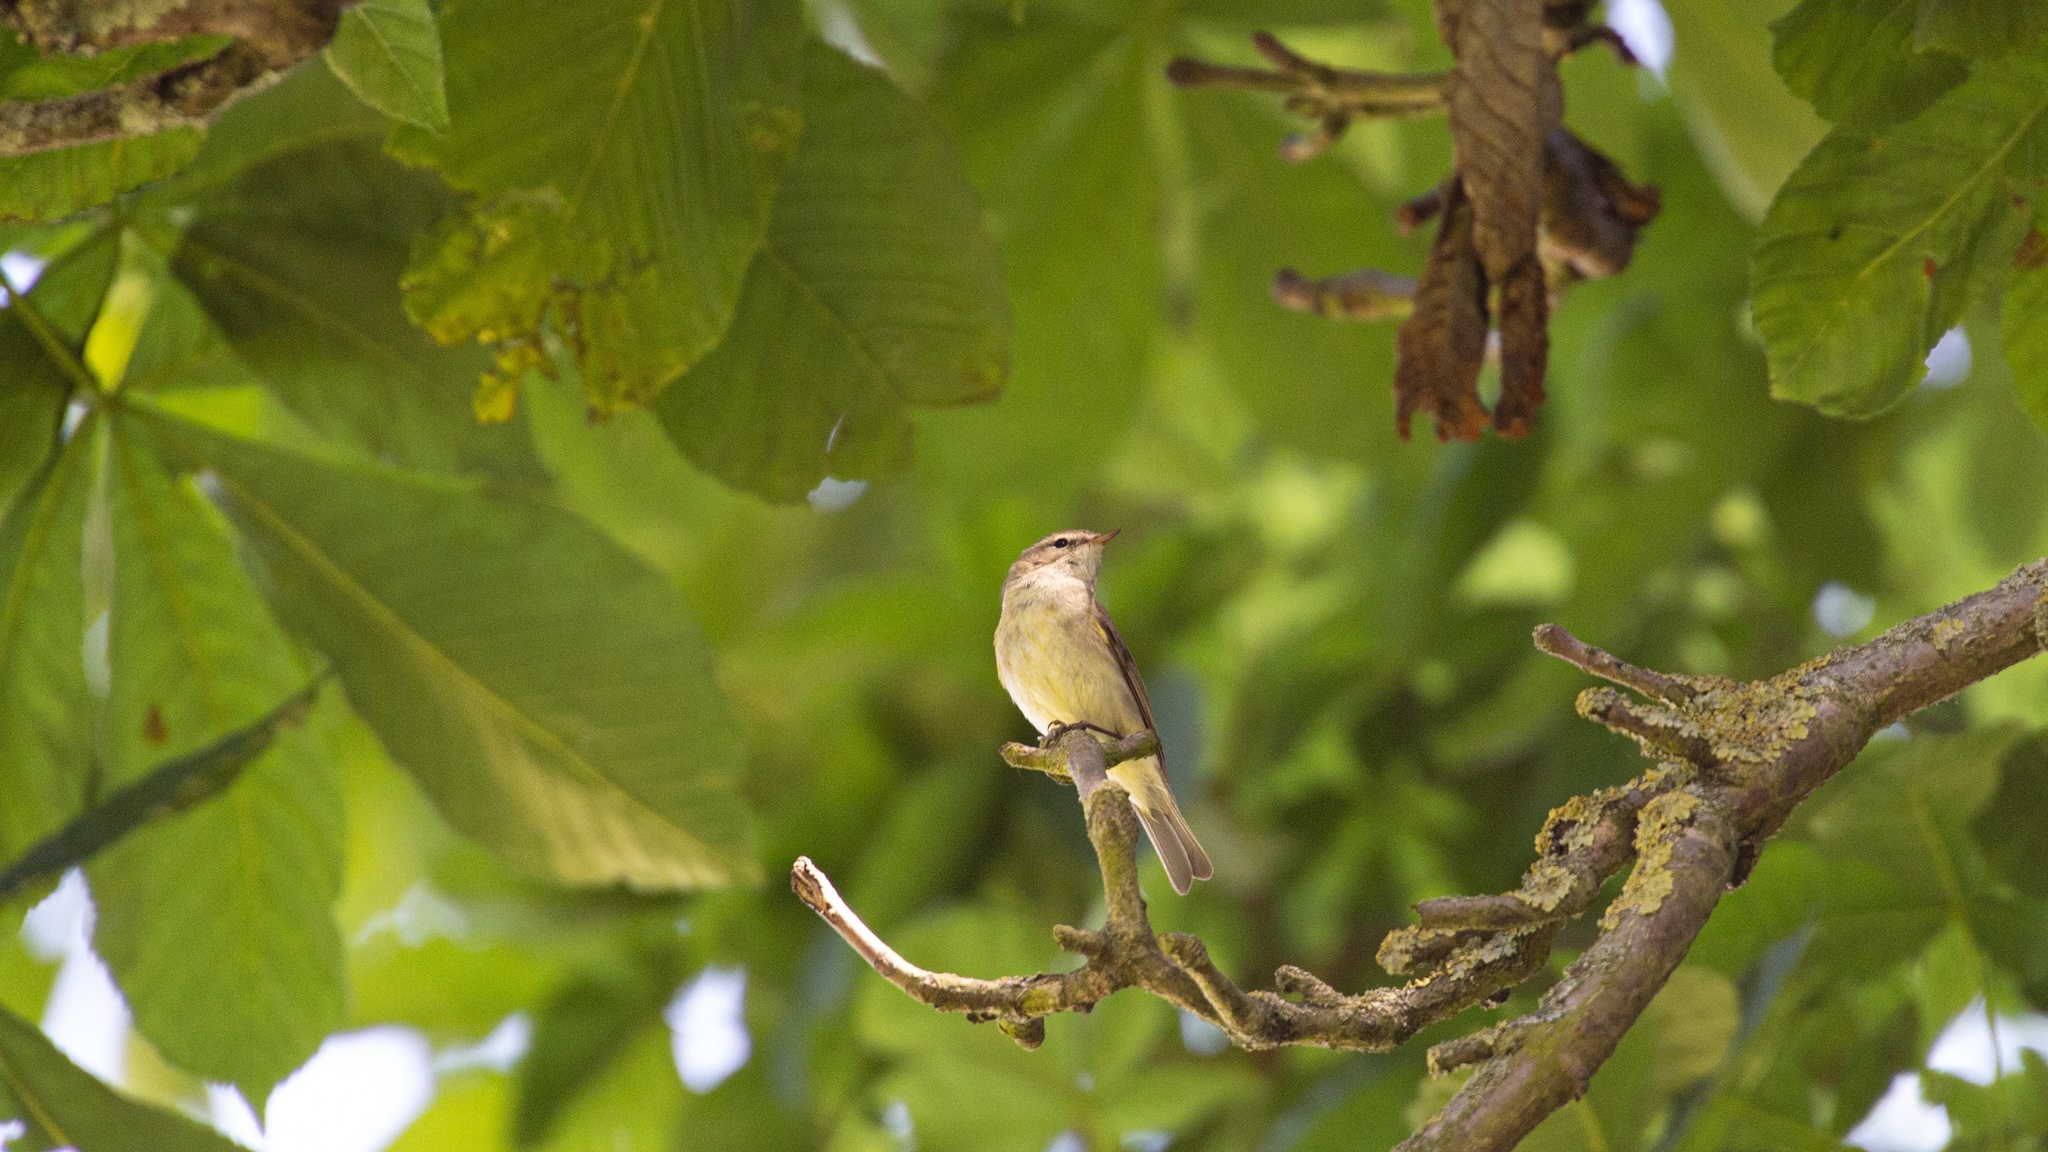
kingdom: Animalia
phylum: Chordata
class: Aves
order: Passeriformes
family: Phylloscopidae
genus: Phylloscopus
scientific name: Phylloscopus collybita
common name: Common chiffchaff
